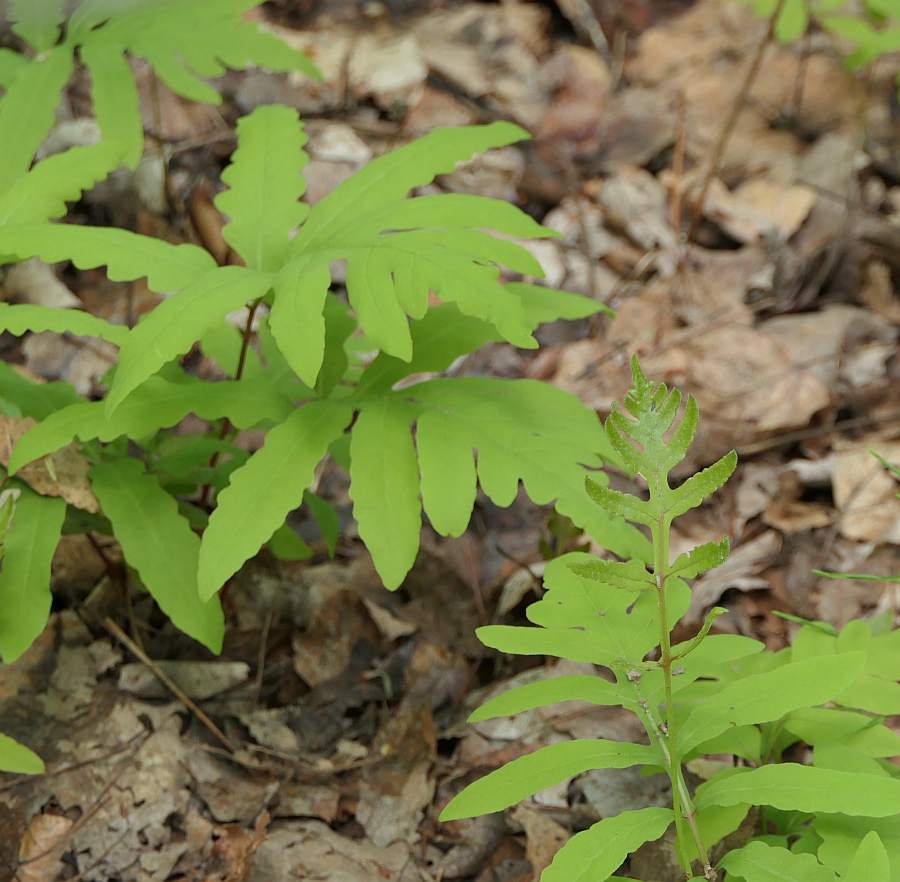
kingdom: Plantae
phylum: Tracheophyta
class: Polypodiopsida
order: Polypodiales
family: Onocleaceae
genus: Onoclea
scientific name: Onoclea sensibilis
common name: Sensitive fern
